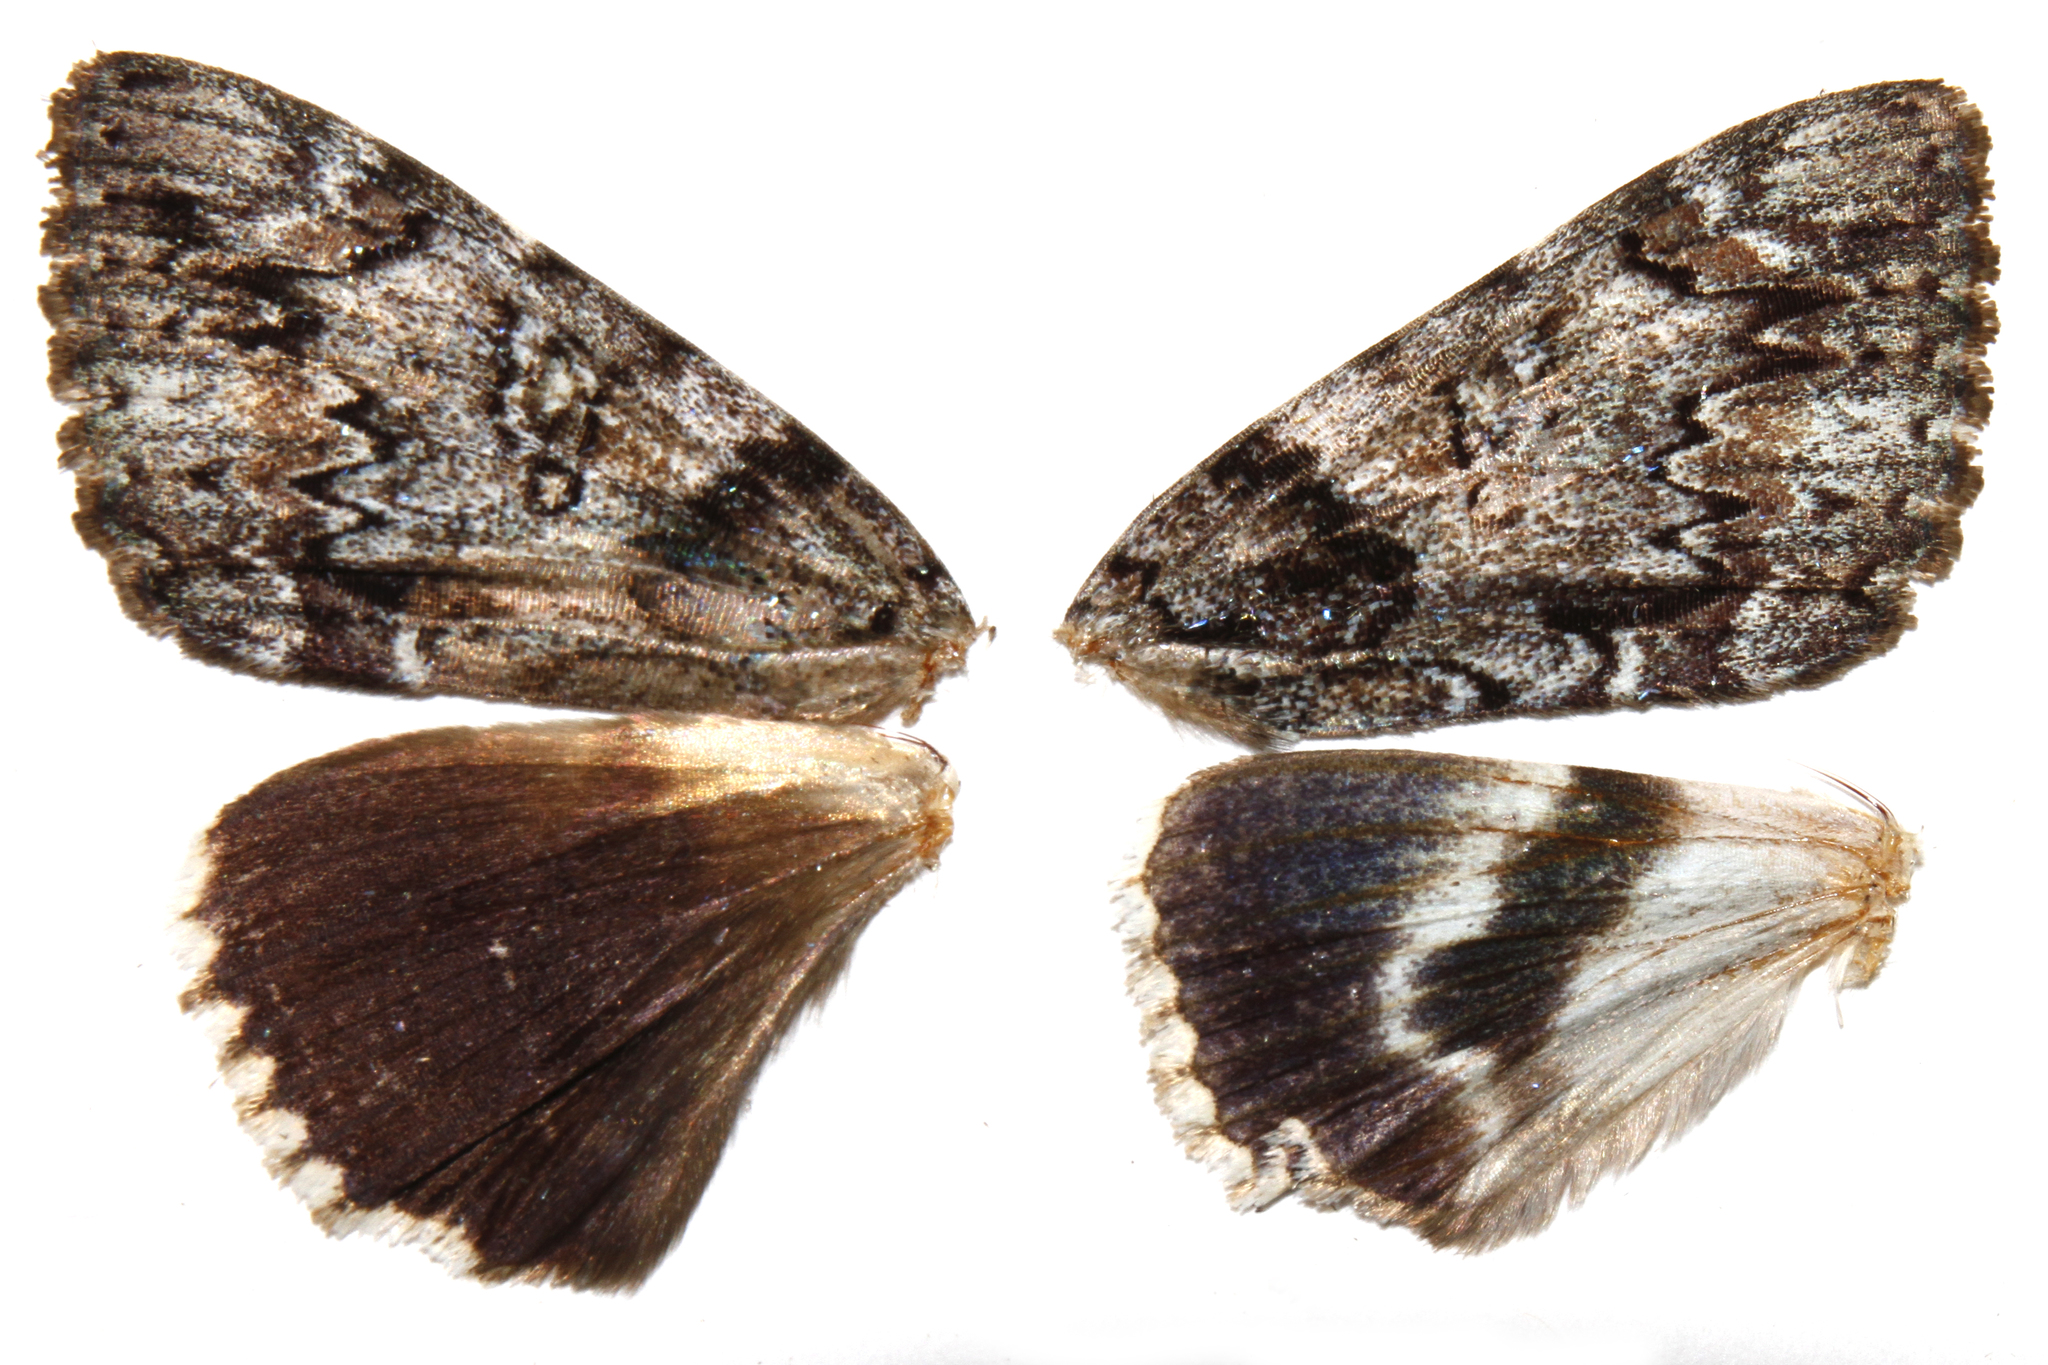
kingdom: Animalia
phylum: Arthropoda
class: Insecta
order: Lepidoptera
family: Erebidae
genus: Catocala
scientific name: Catocala lacrymosa
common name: Tearful underwing
